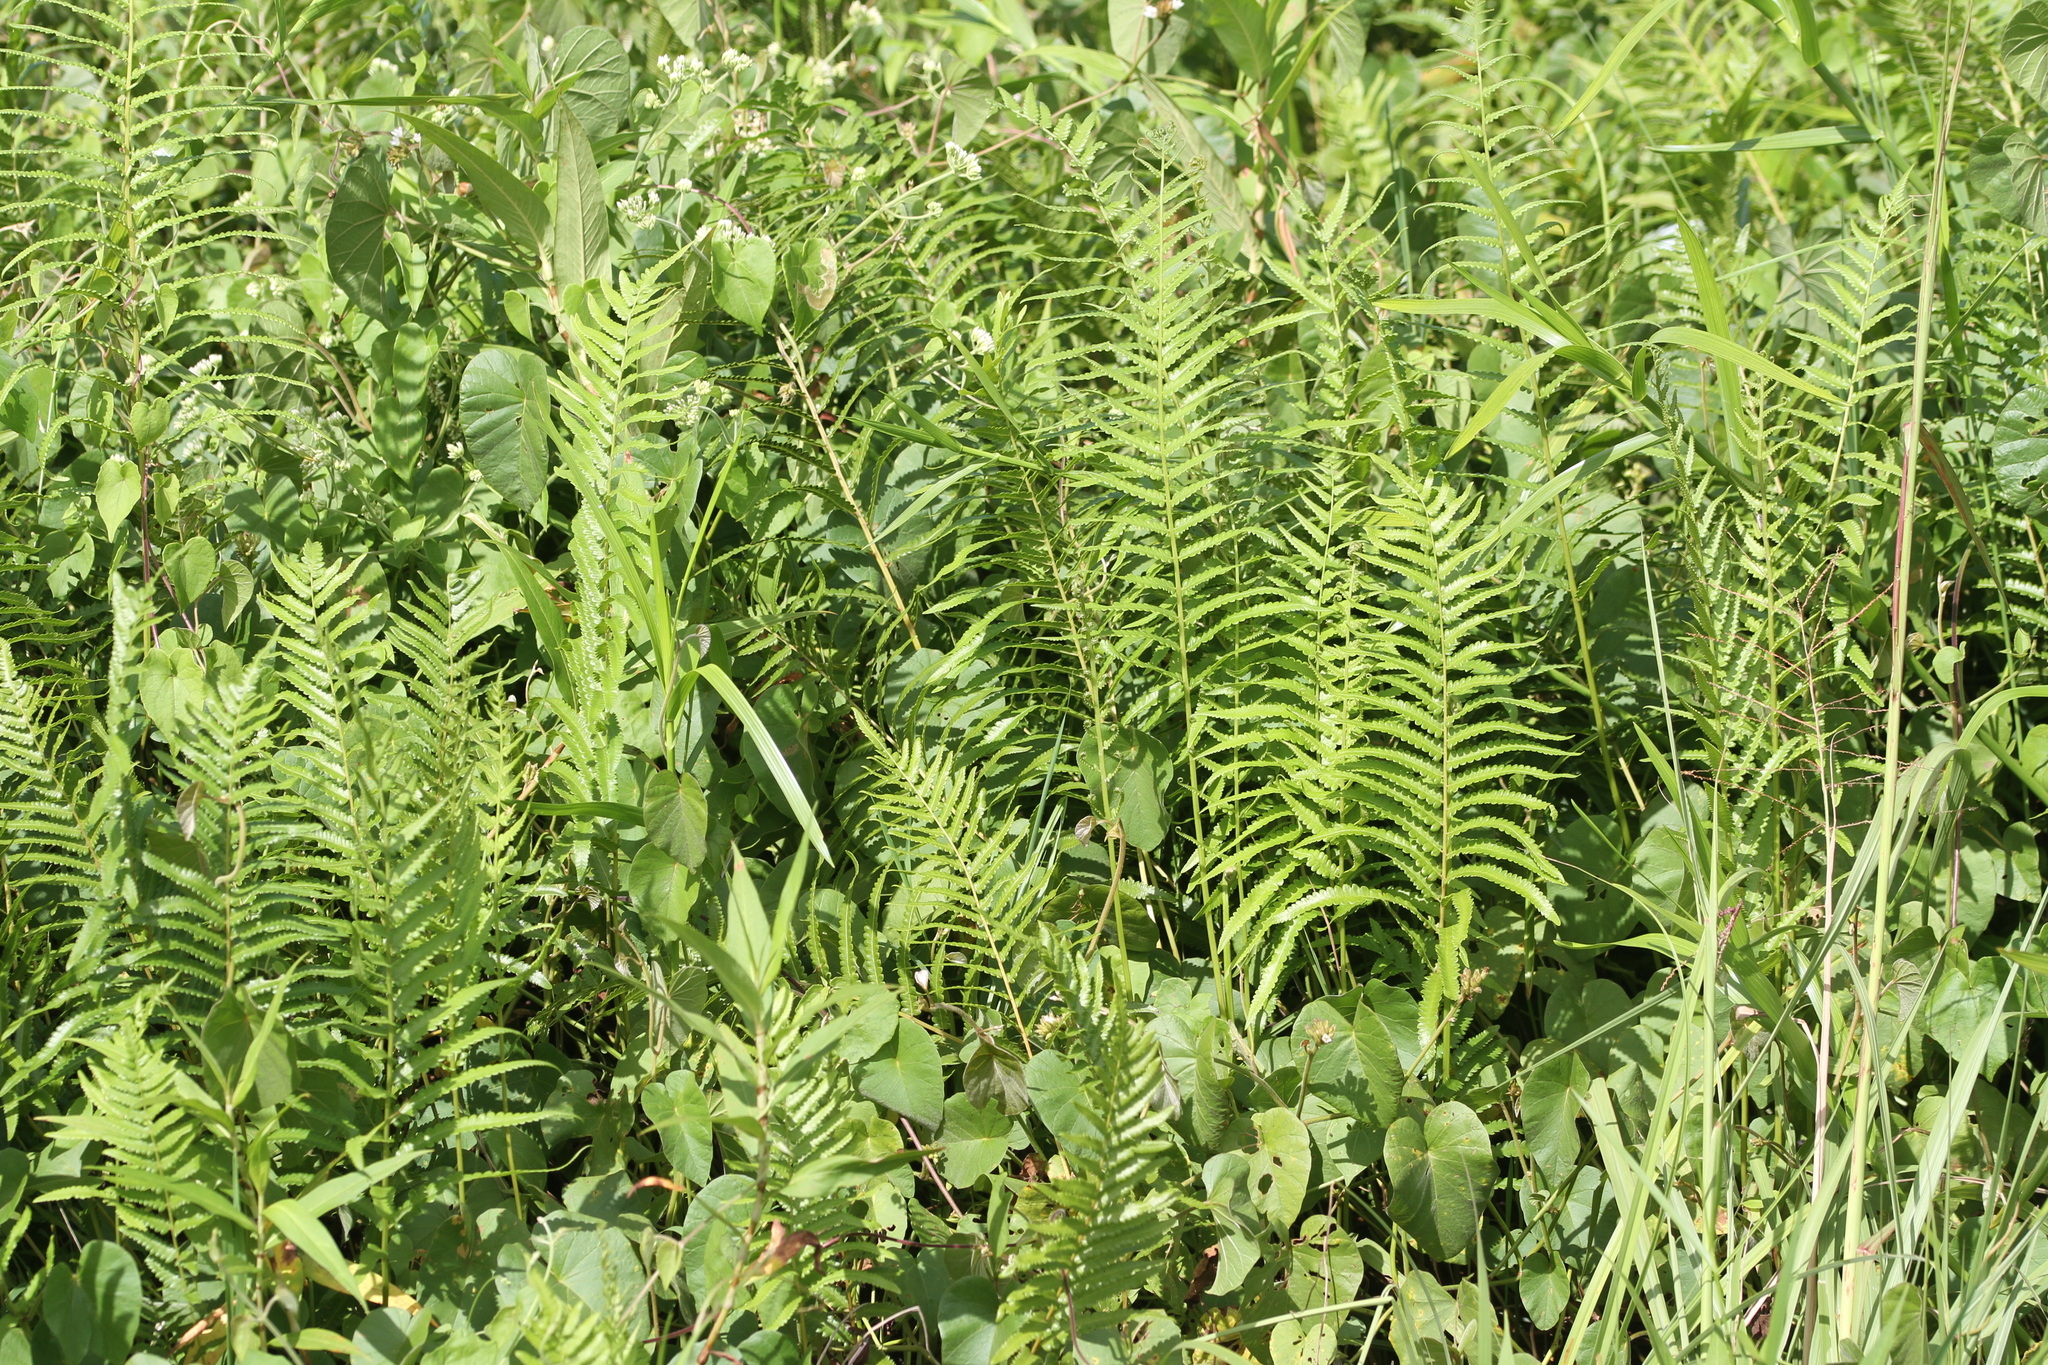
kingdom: Plantae
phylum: Tracheophyta
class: Polypodiopsida
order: Polypodiales
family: Thelypteridaceae
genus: Cyclosorus
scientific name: Cyclosorus interruptus
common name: Neke fern
